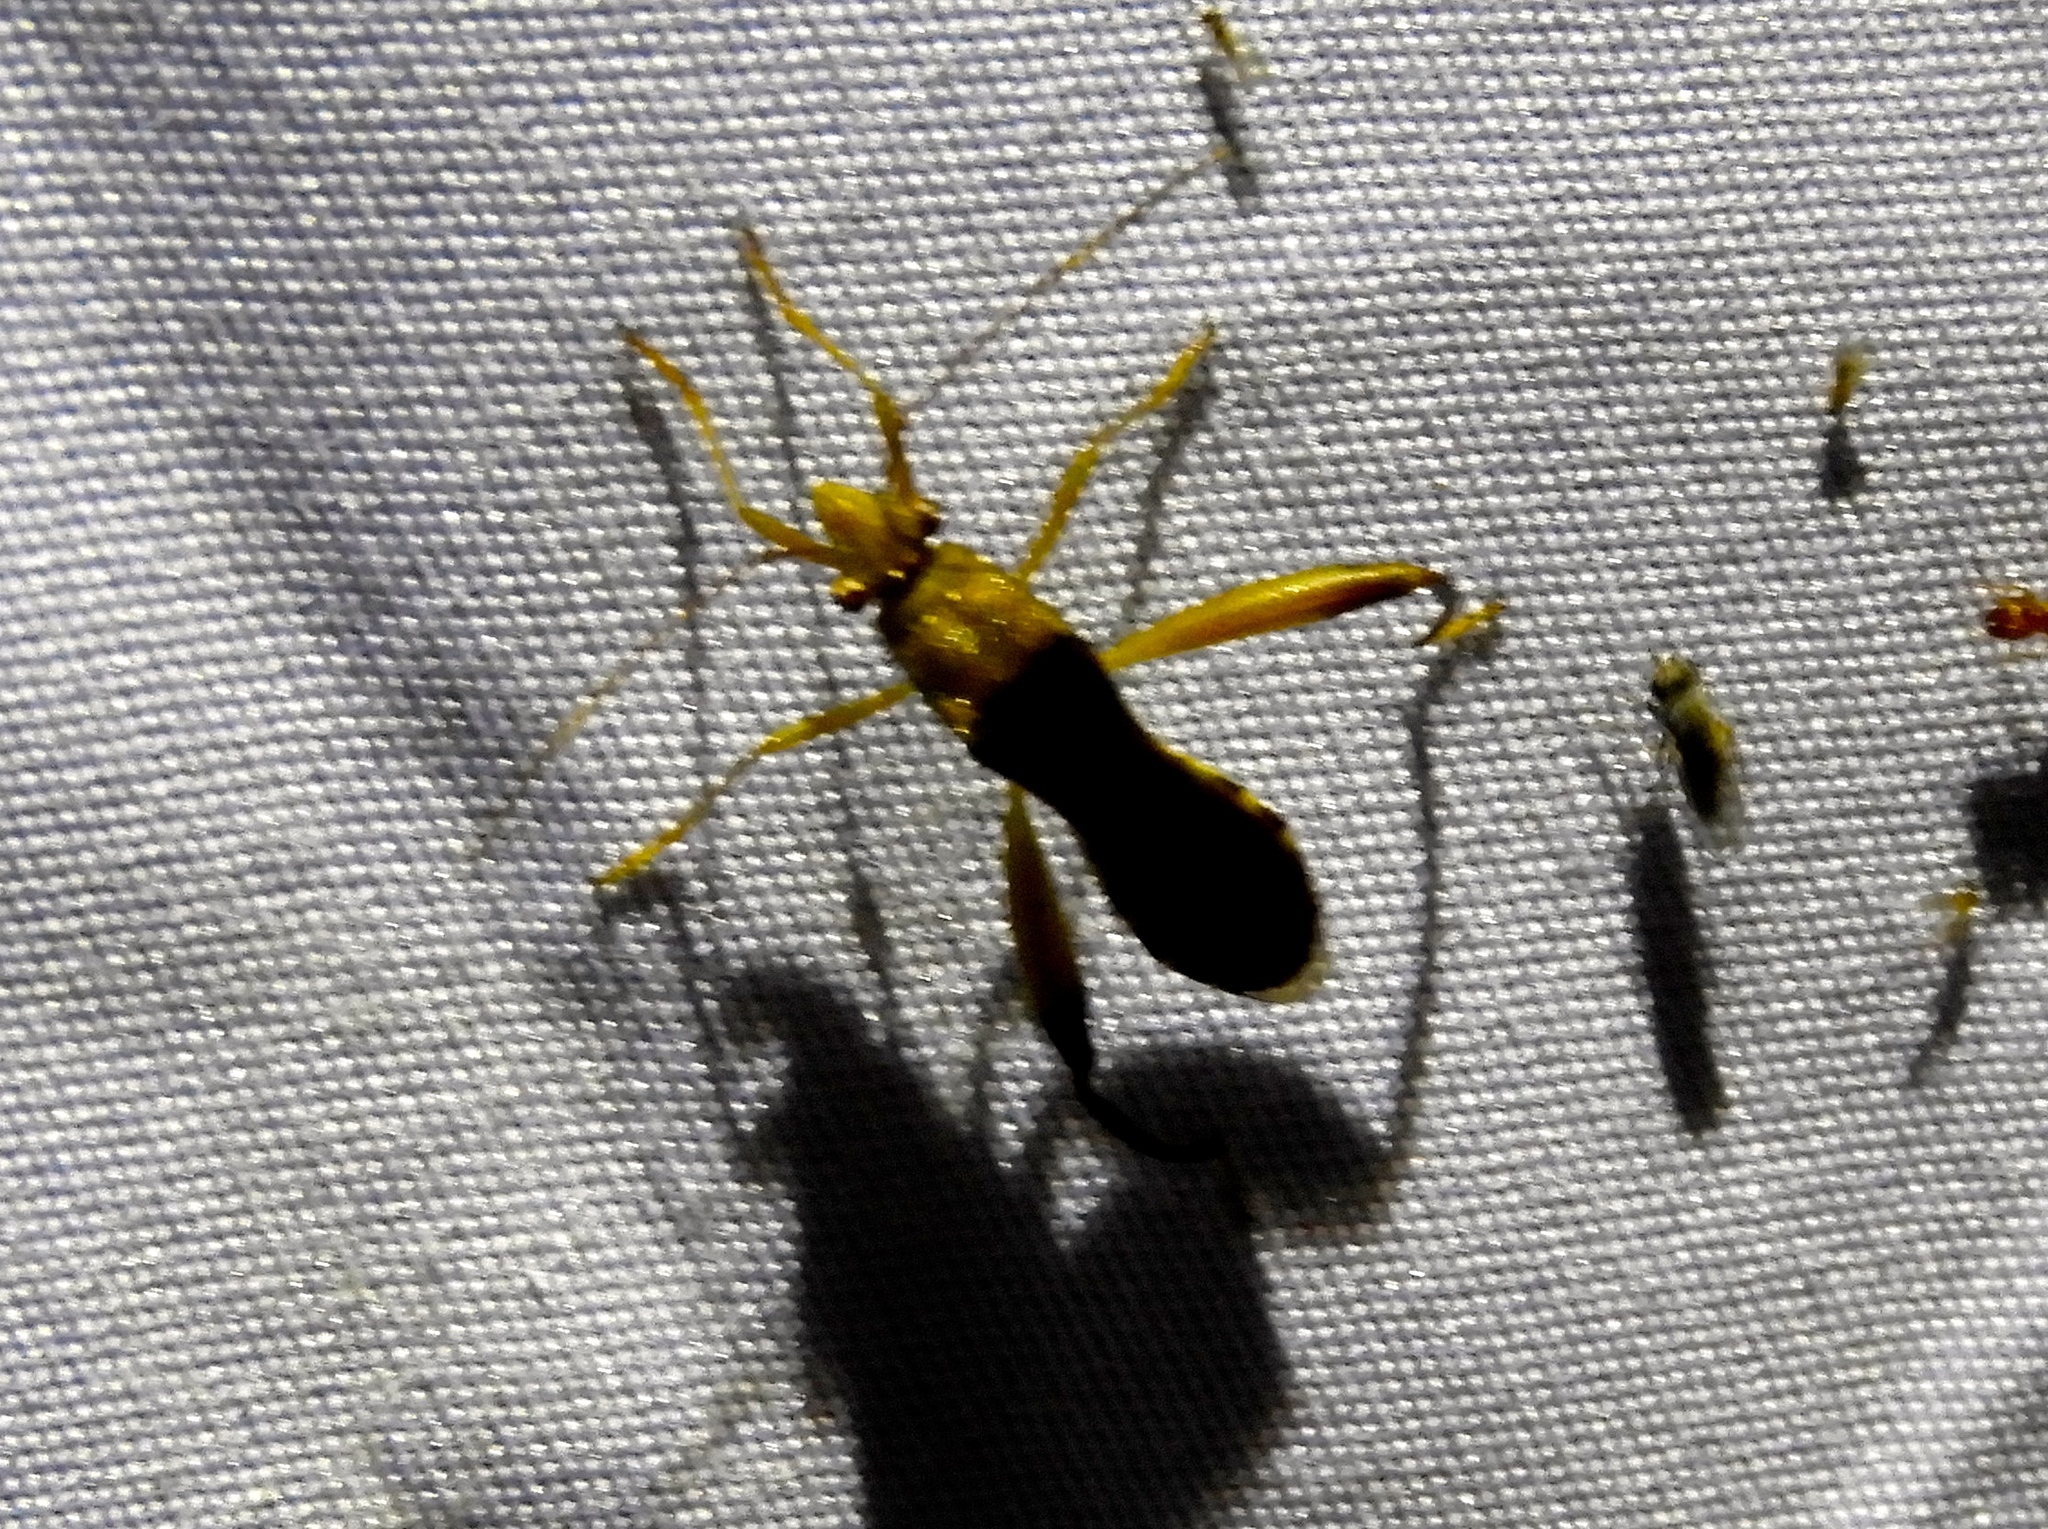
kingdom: Animalia
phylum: Arthropoda
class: Insecta
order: Hemiptera
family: Alydidae
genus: Hyalymenus
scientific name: Hyalymenus
